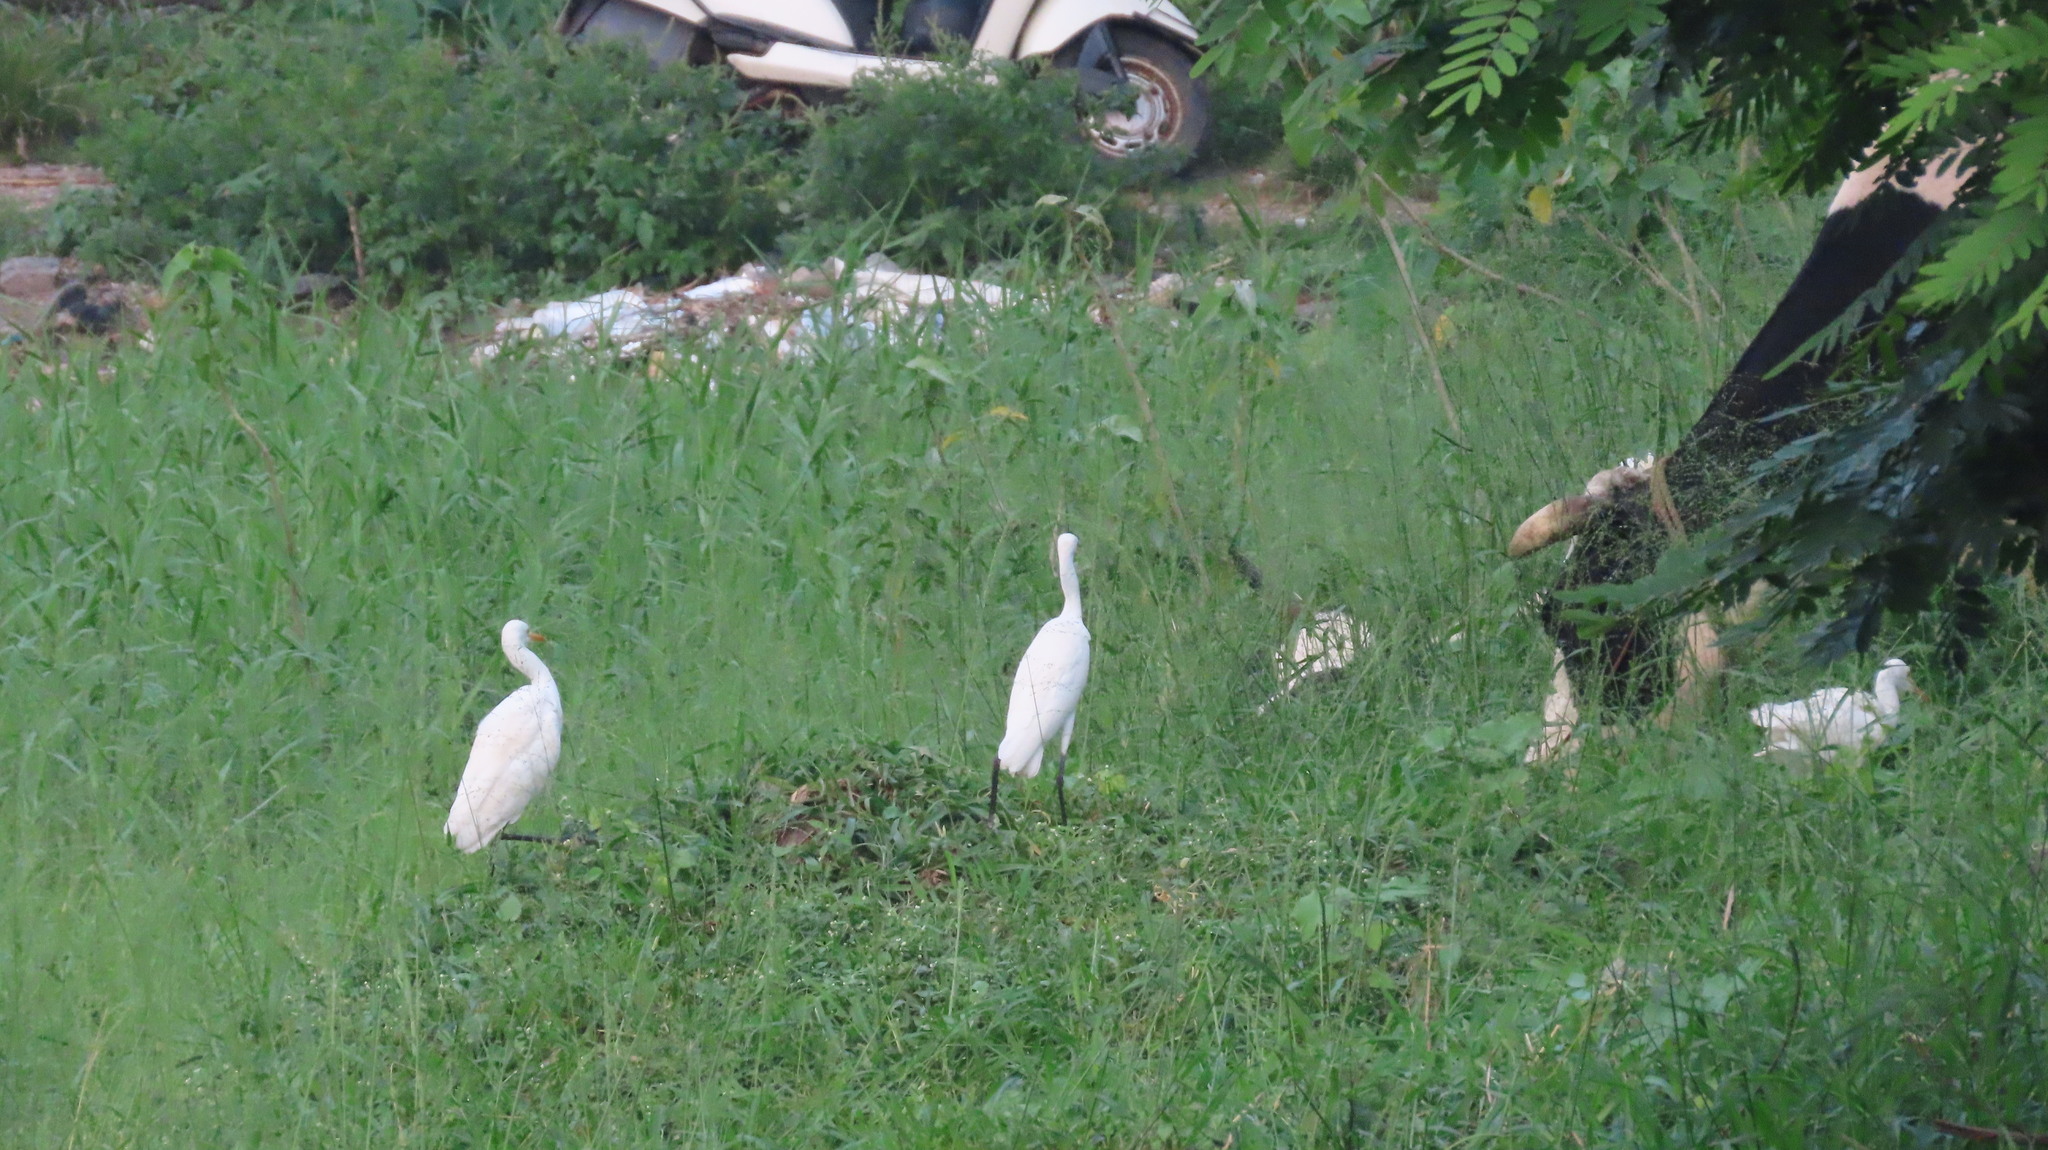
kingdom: Animalia
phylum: Chordata
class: Aves
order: Pelecaniformes
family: Ardeidae
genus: Bubulcus
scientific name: Bubulcus coromandus
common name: Eastern cattle egret
